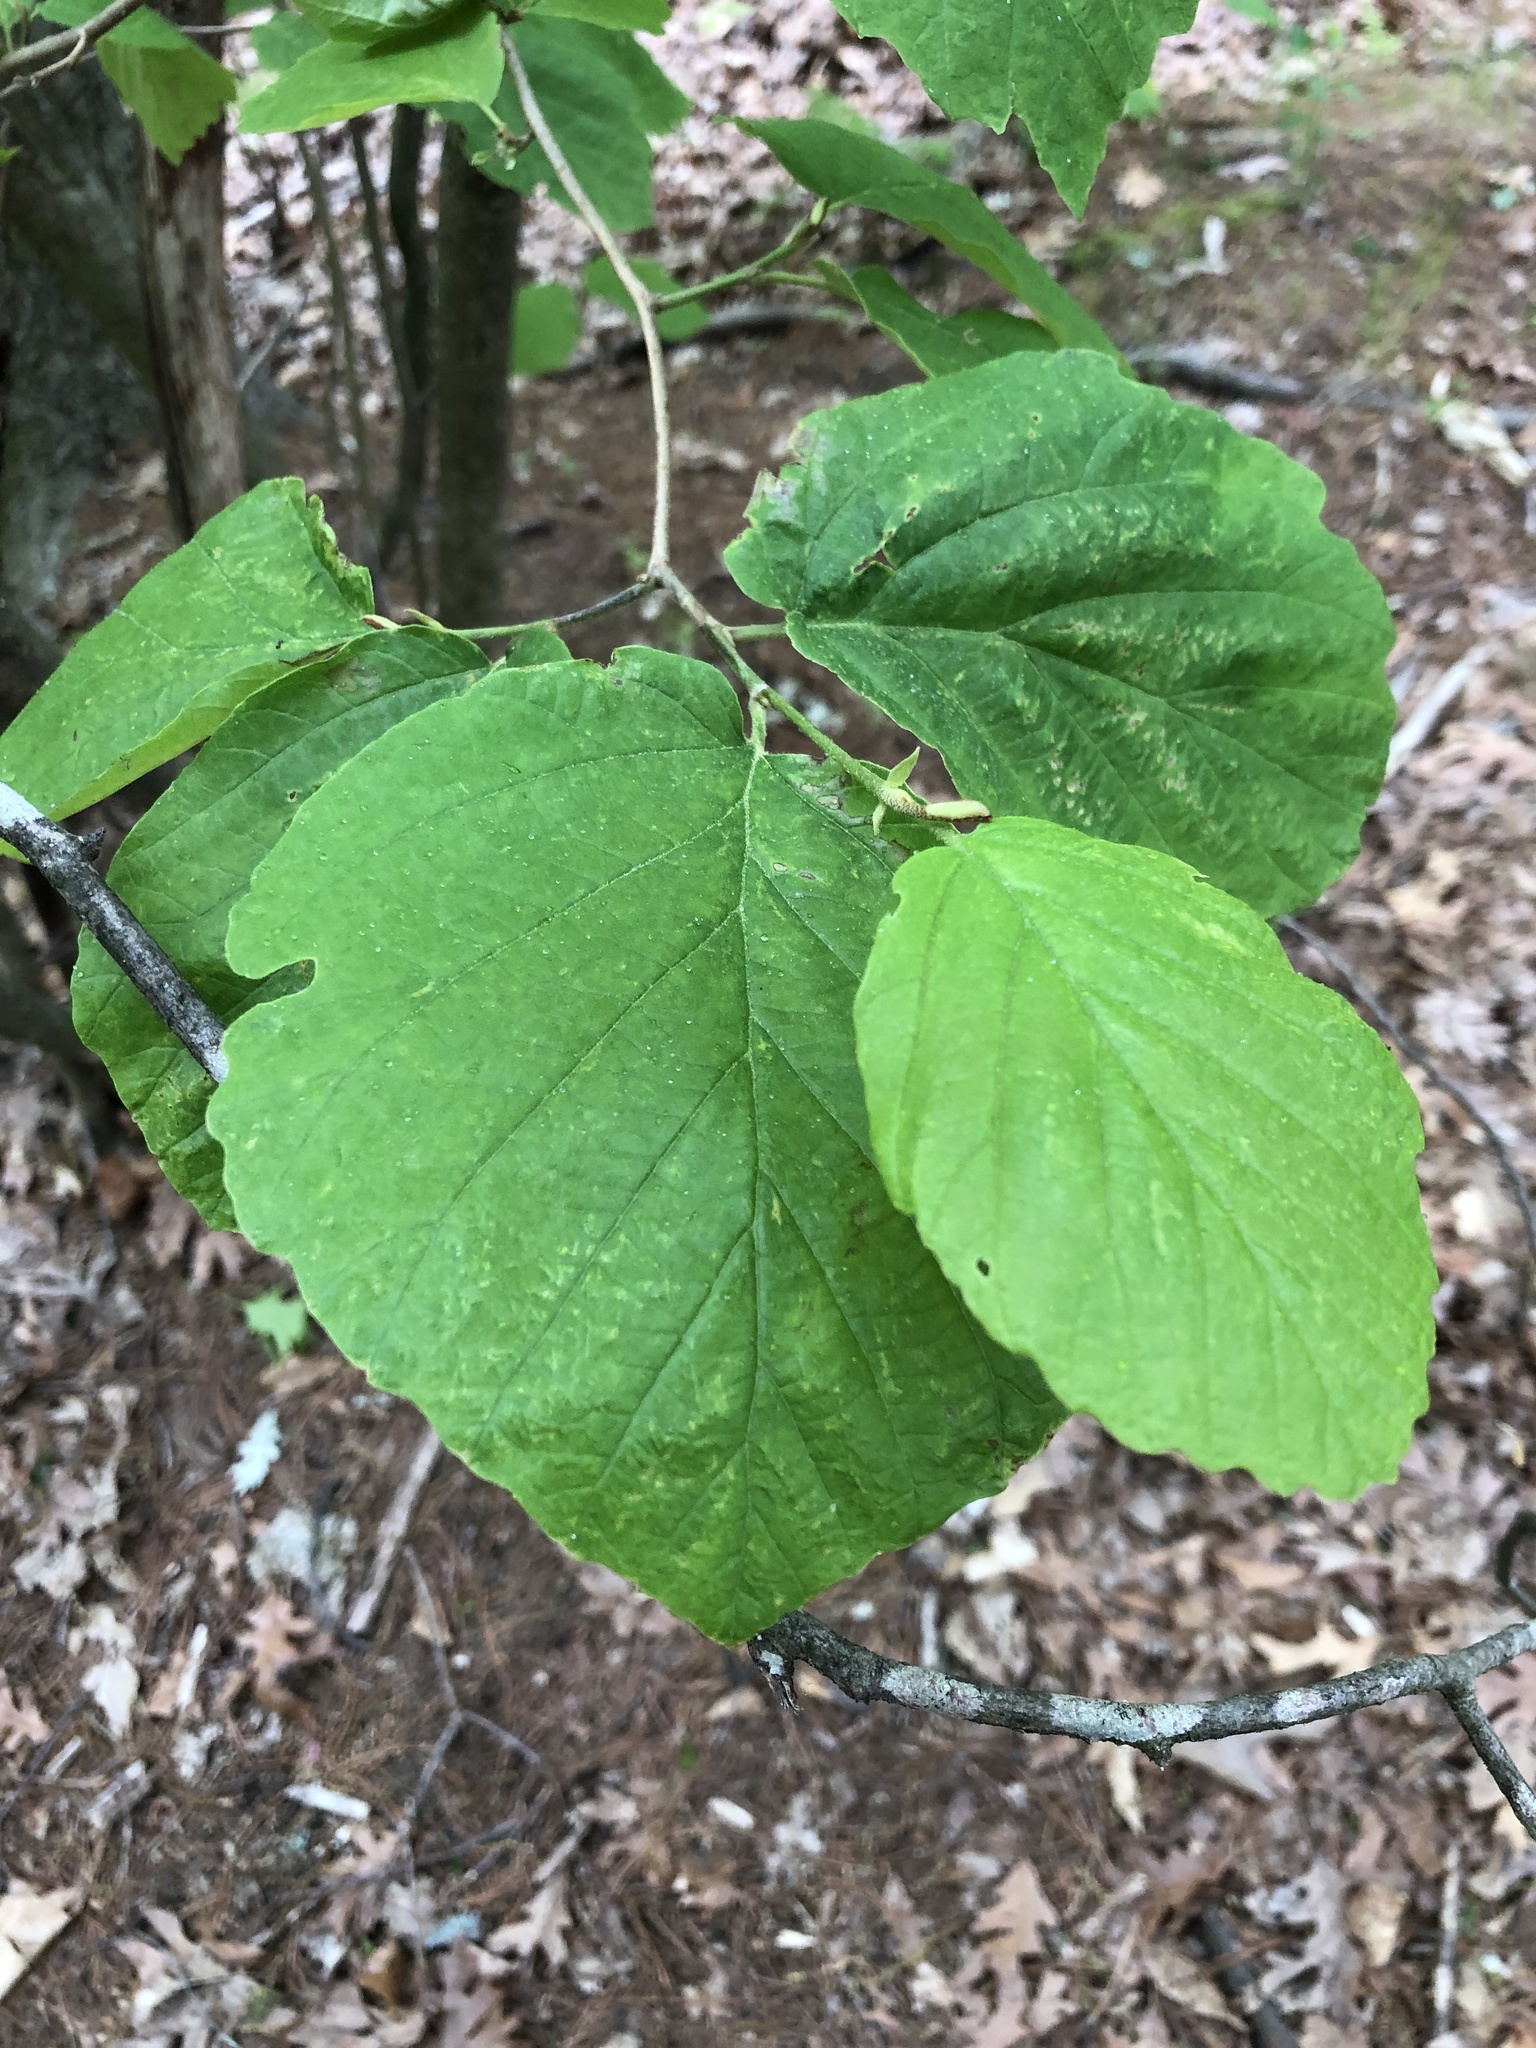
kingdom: Plantae
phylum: Tracheophyta
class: Magnoliopsida
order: Saxifragales
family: Hamamelidaceae
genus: Hamamelis
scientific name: Hamamelis virginiana
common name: Witch-hazel
